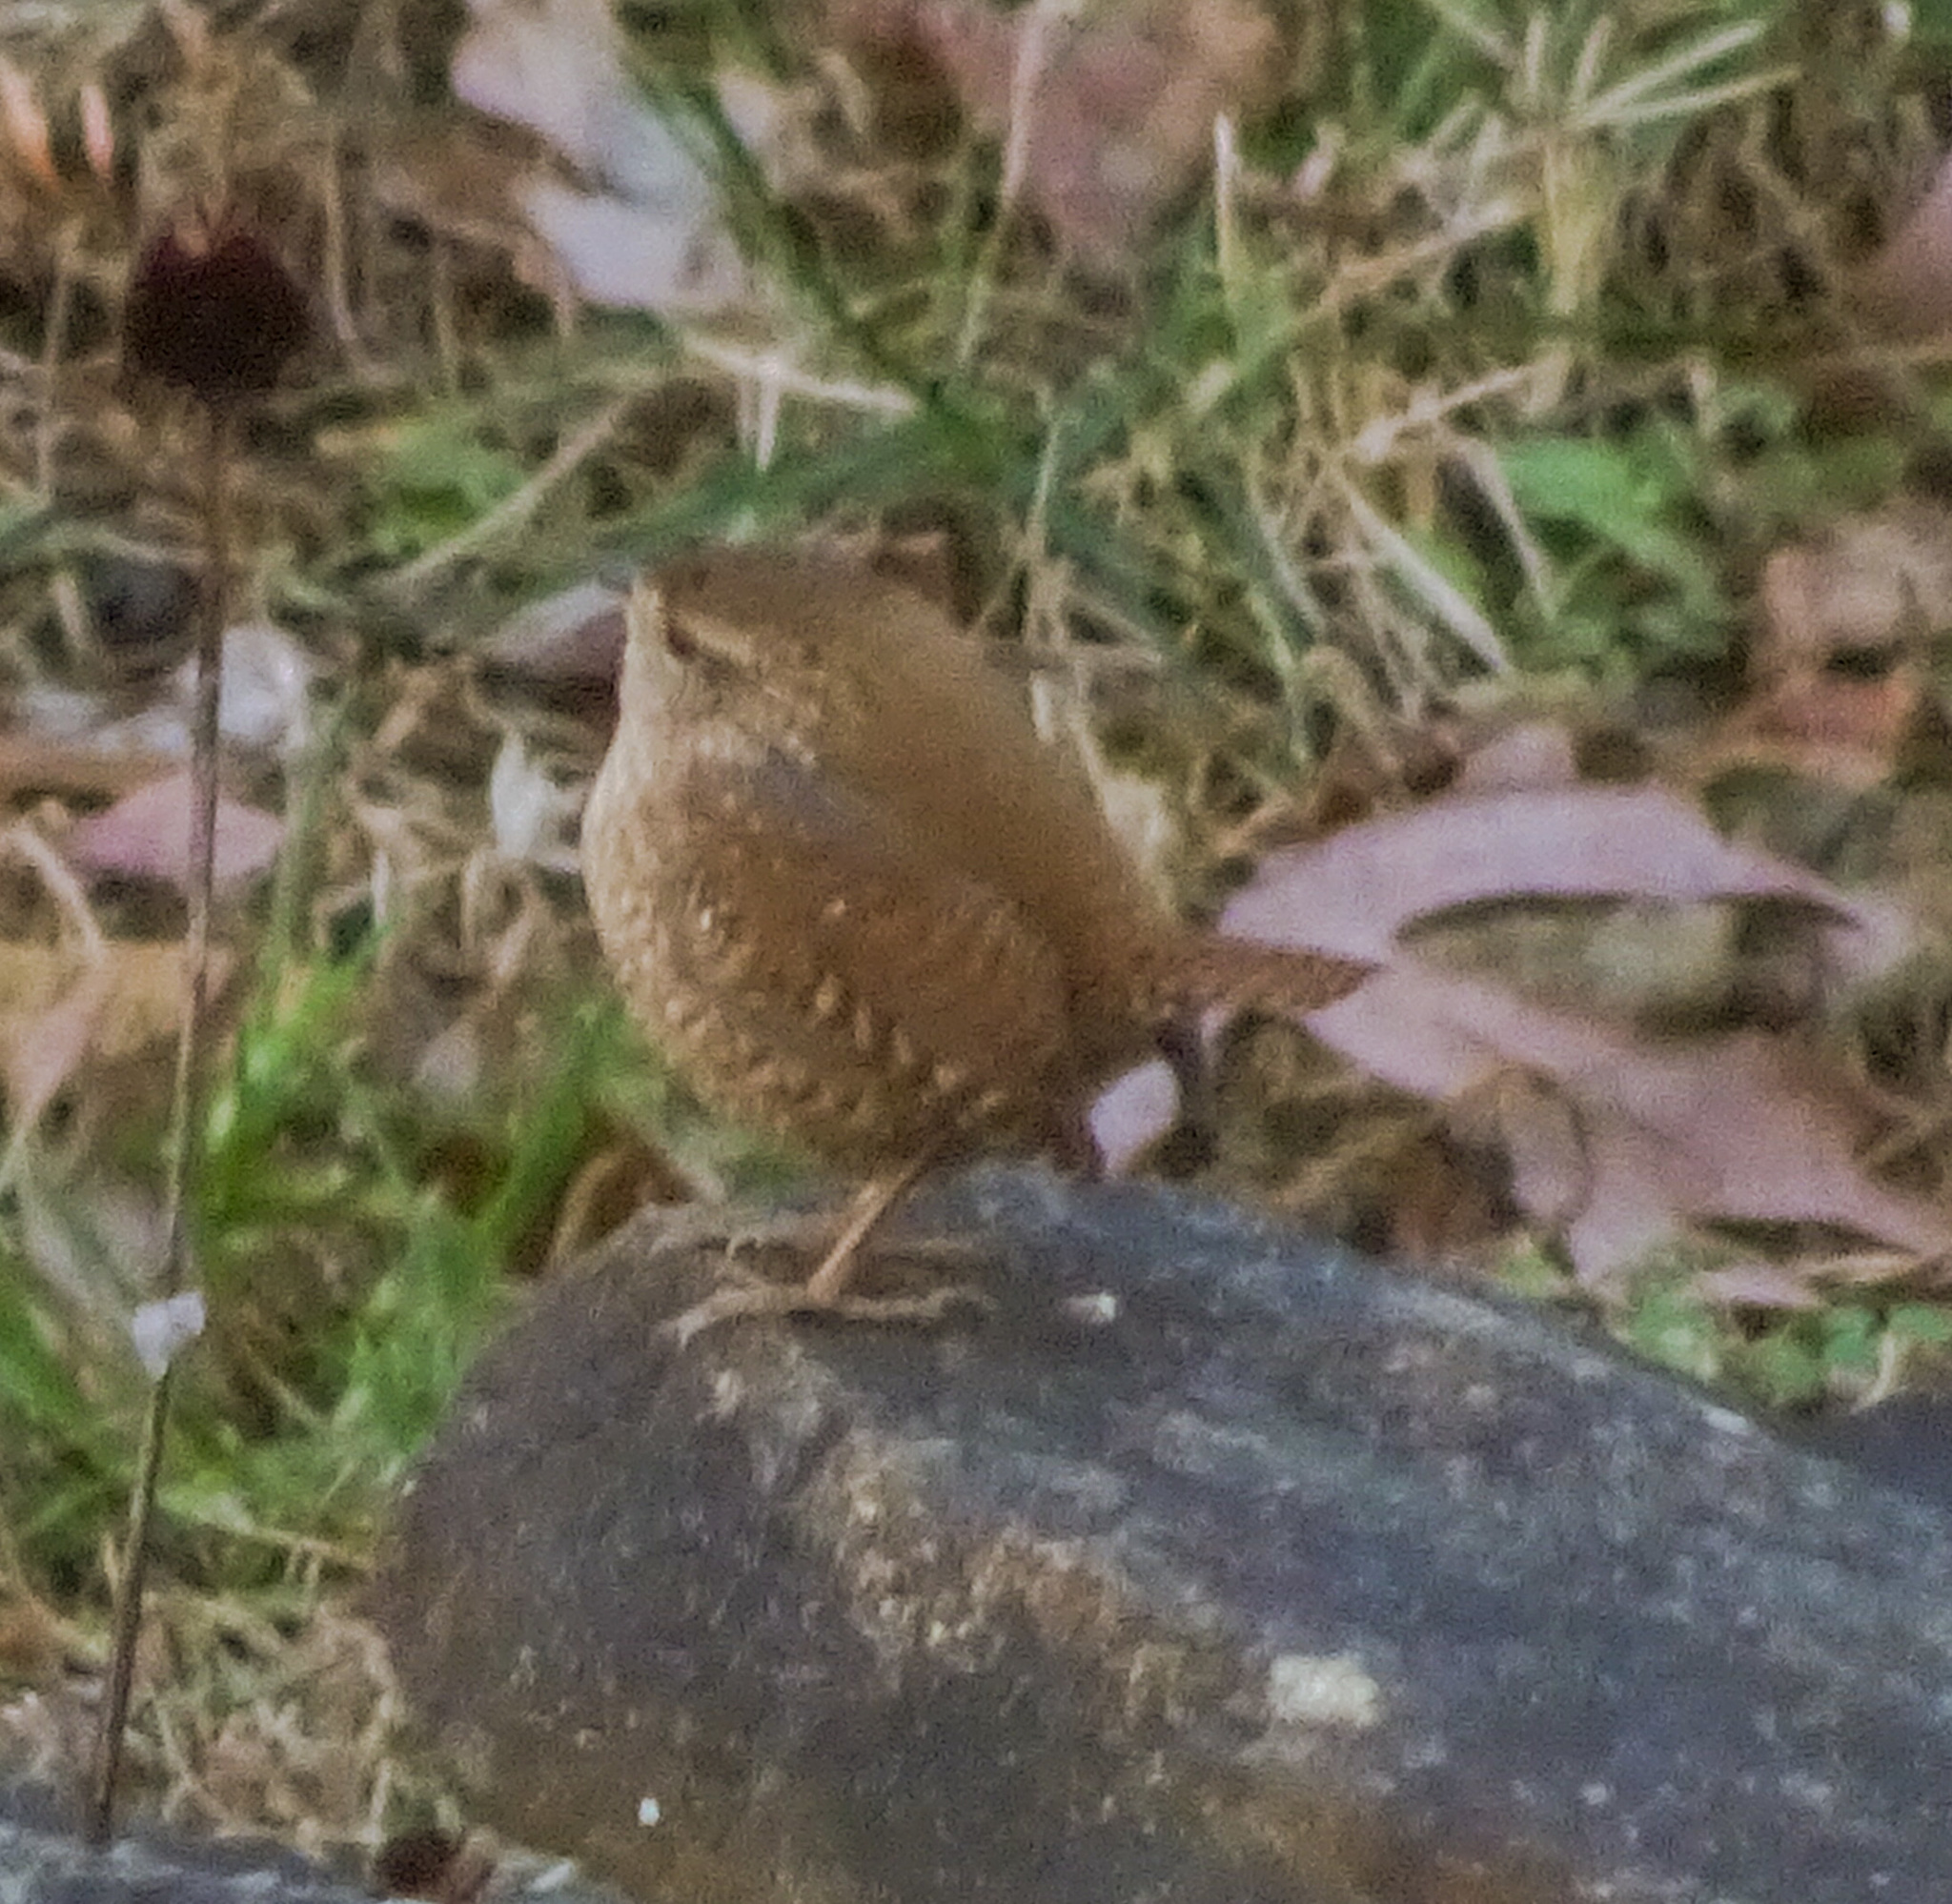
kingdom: Animalia
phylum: Chordata
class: Aves
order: Passeriformes
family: Troglodytidae
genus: Troglodytes
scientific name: Troglodytes hiemalis
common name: Winter wren
